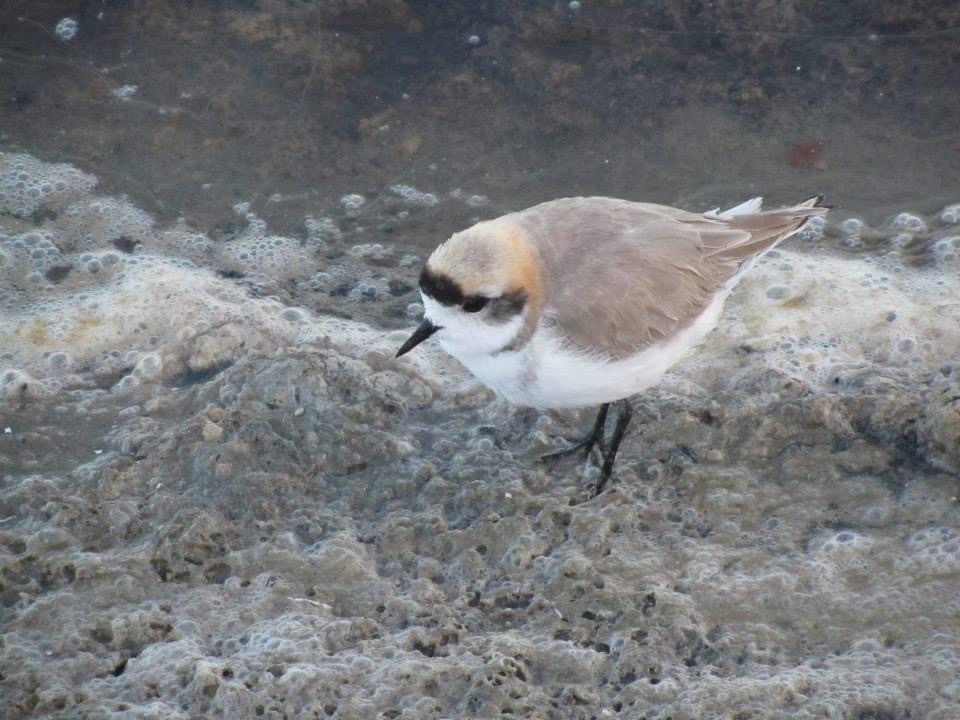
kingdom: Animalia
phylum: Chordata
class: Aves
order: Charadriiformes
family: Charadriidae
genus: Anarhynchus
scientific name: Anarhynchus
